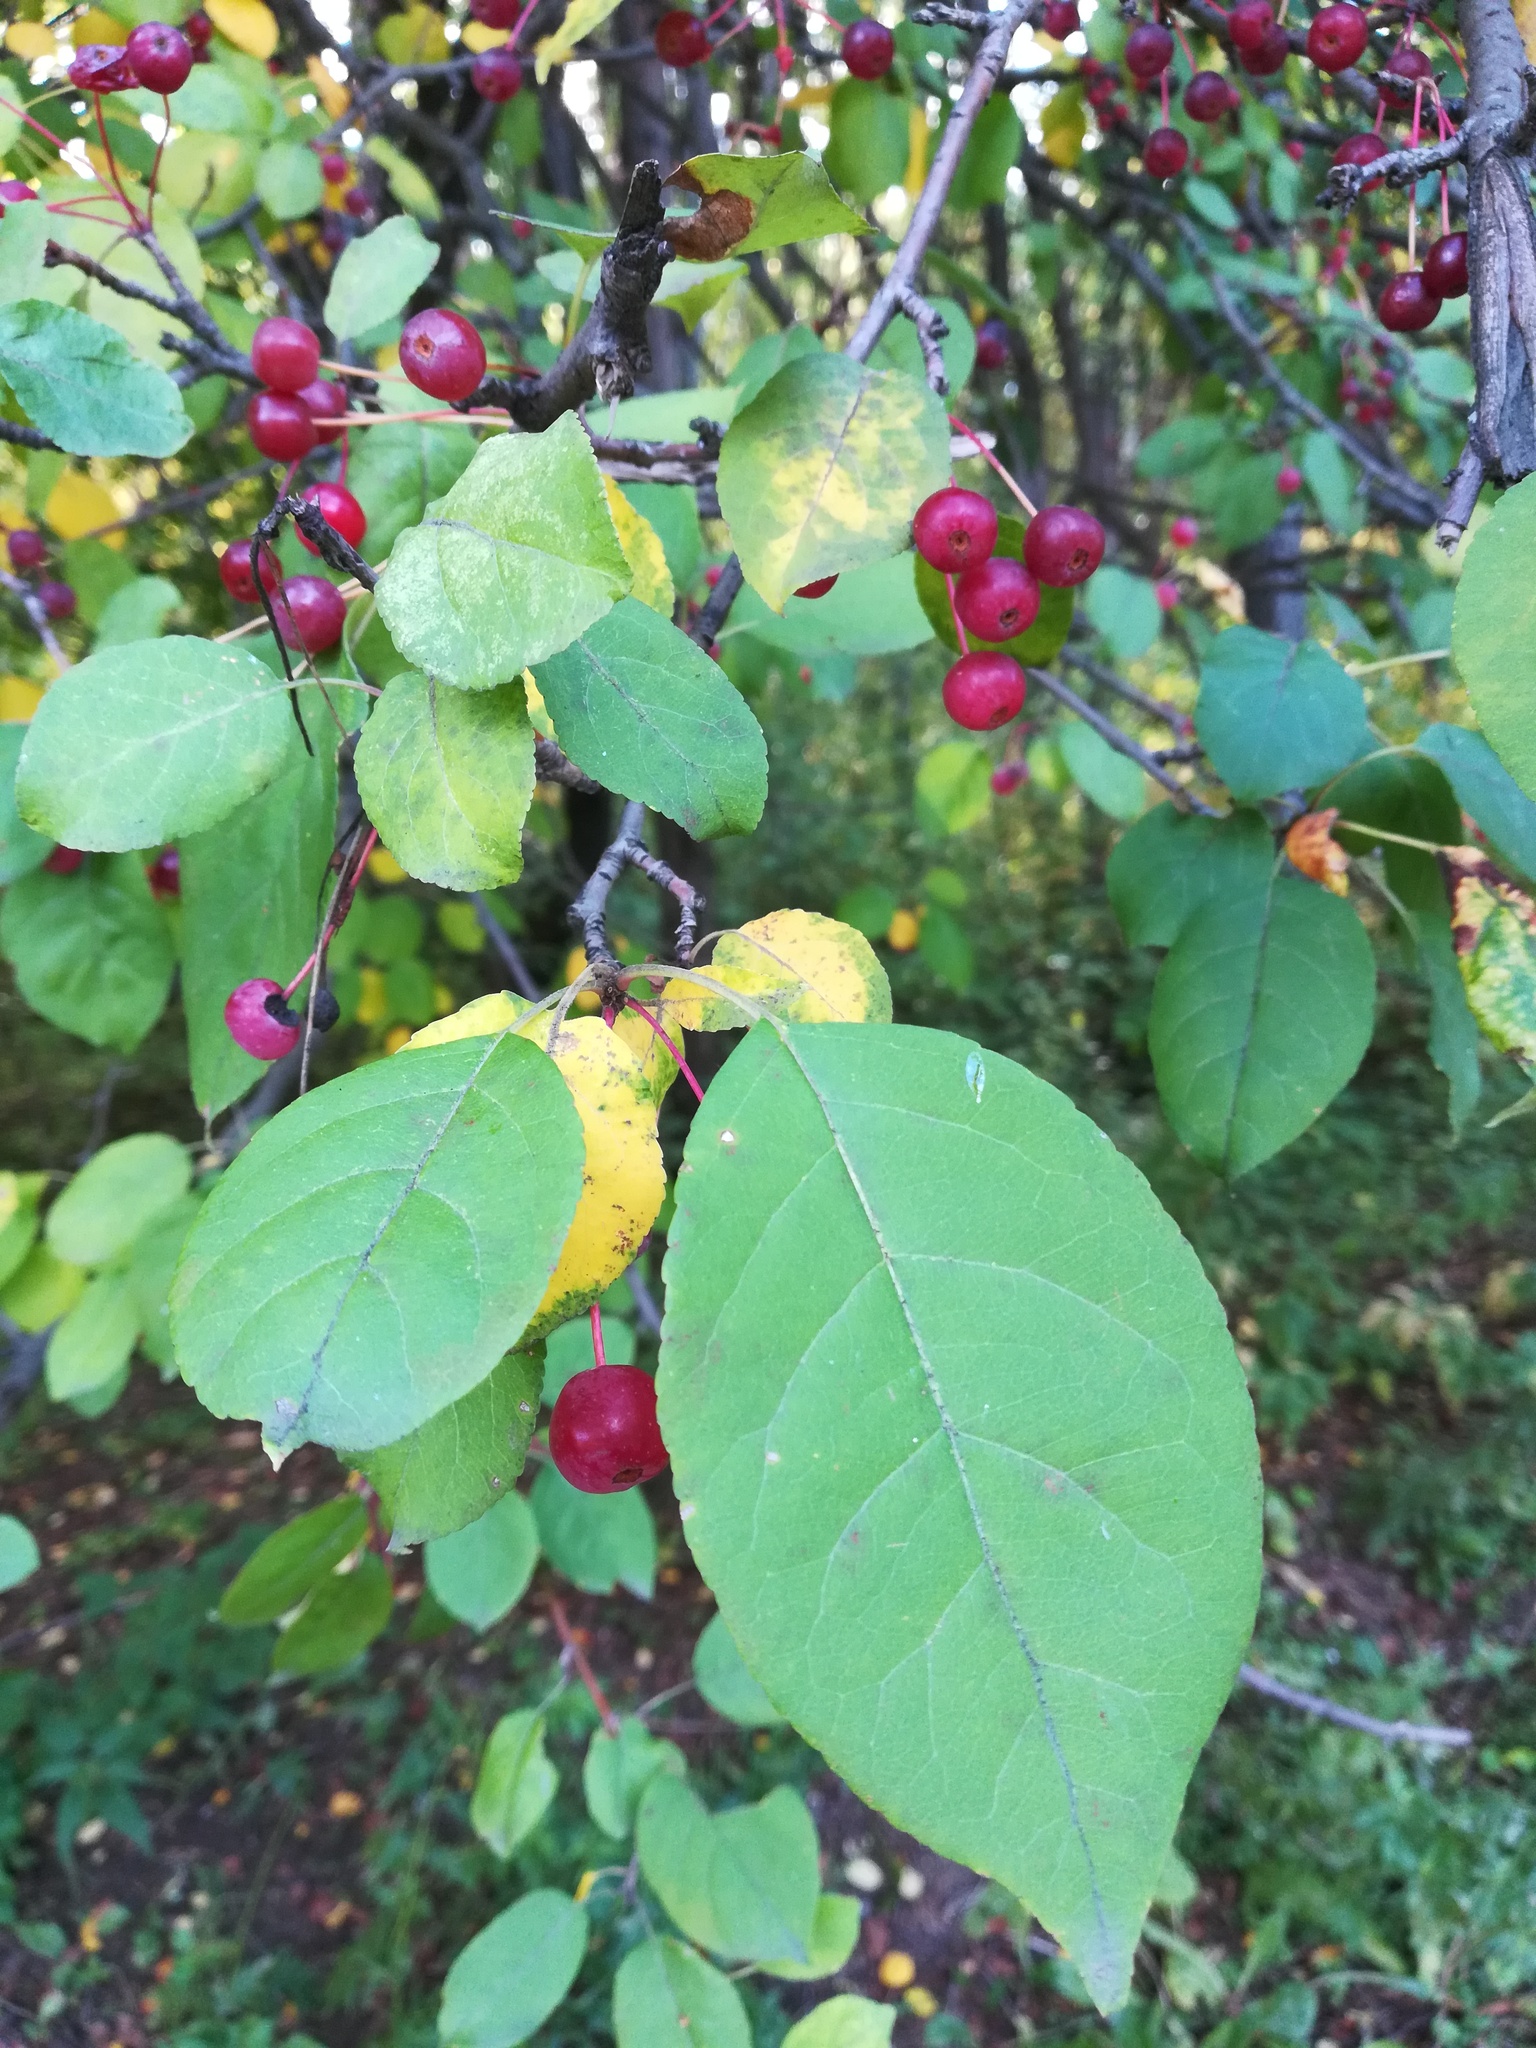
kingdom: Plantae
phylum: Tracheophyta
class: Magnoliopsida
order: Rosales
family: Rosaceae
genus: Malus
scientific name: Malus baccata
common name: Siberian crab
